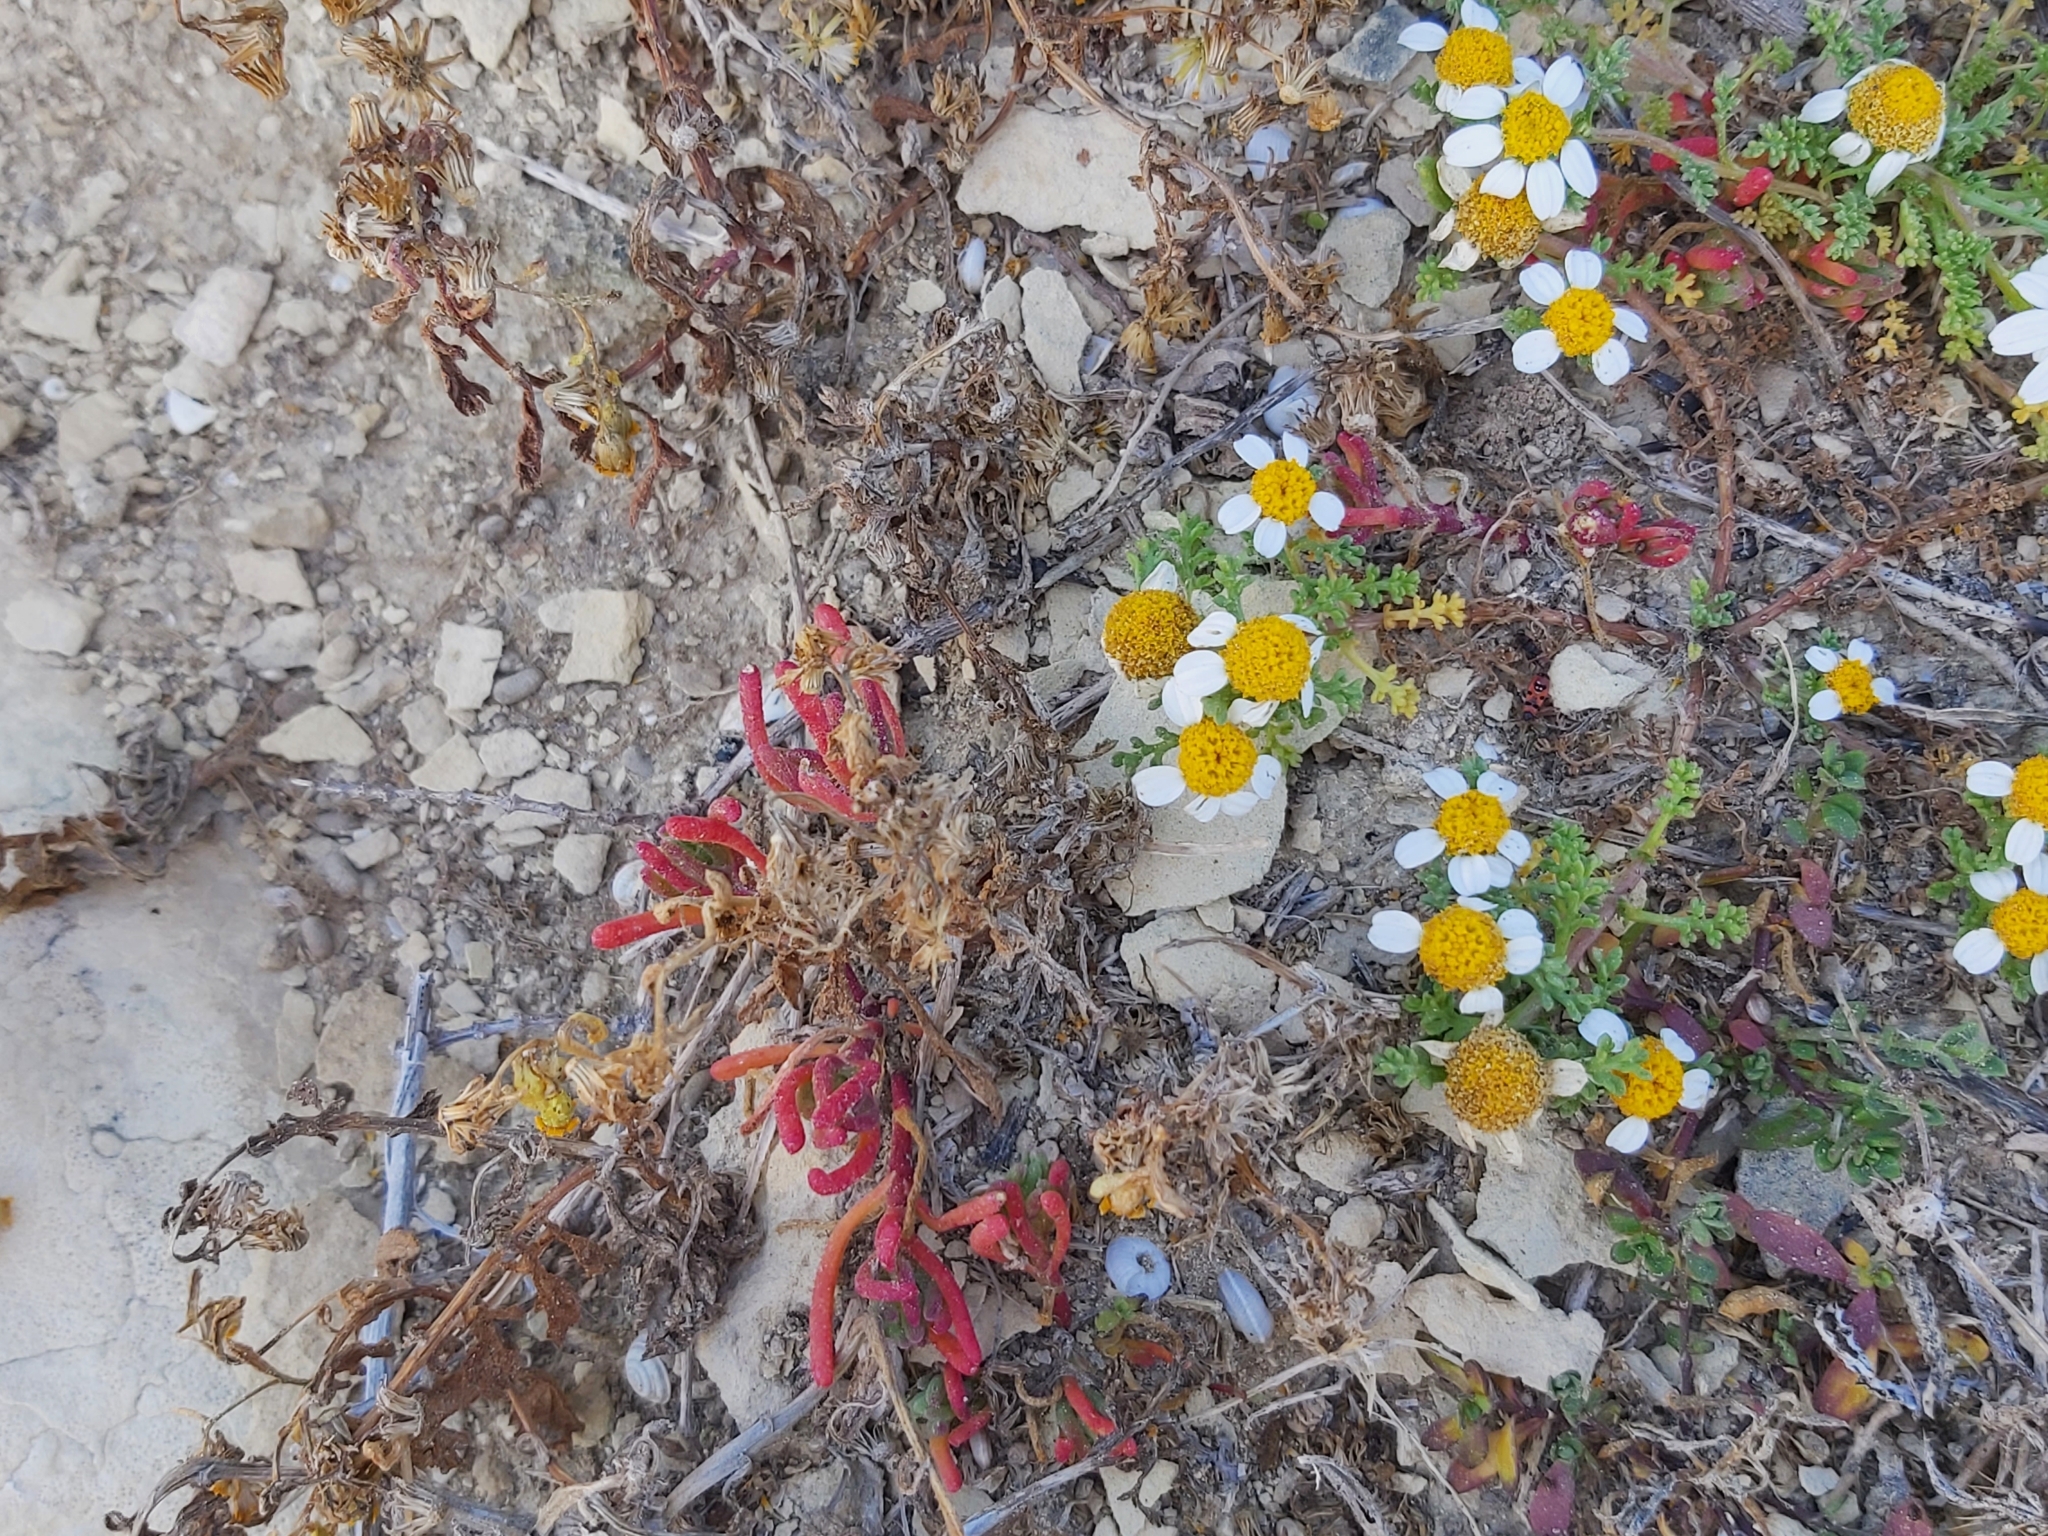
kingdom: Plantae
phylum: Tracheophyta
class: Magnoliopsida
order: Caryophyllales
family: Aizoaceae
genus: Mesembryanthemum
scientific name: Mesembryanthemum nodiflorum
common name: Slenderleaf iceplant
